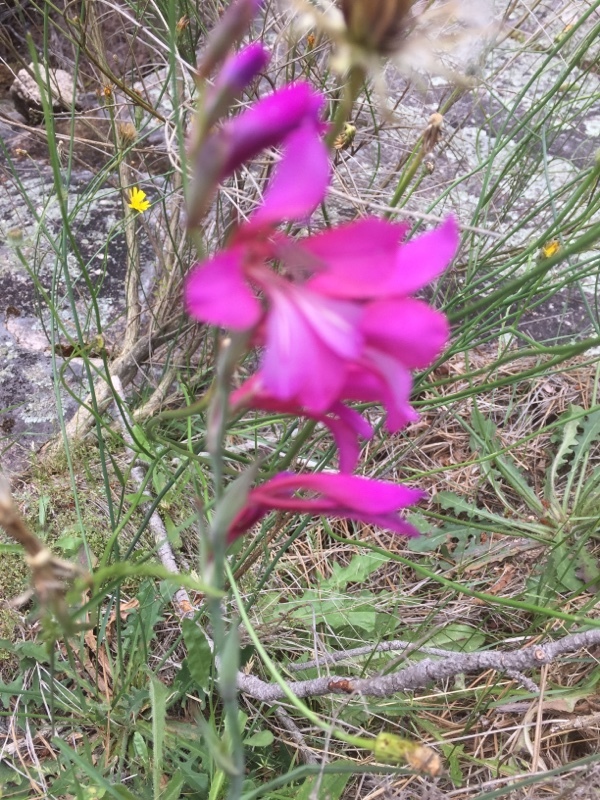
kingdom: Plantae
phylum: Tracheophyta
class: Liliopsida
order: Asparagales
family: Iridaceae
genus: Gladiolus
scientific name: Gladiolus communis
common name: Eastern gladiolus
